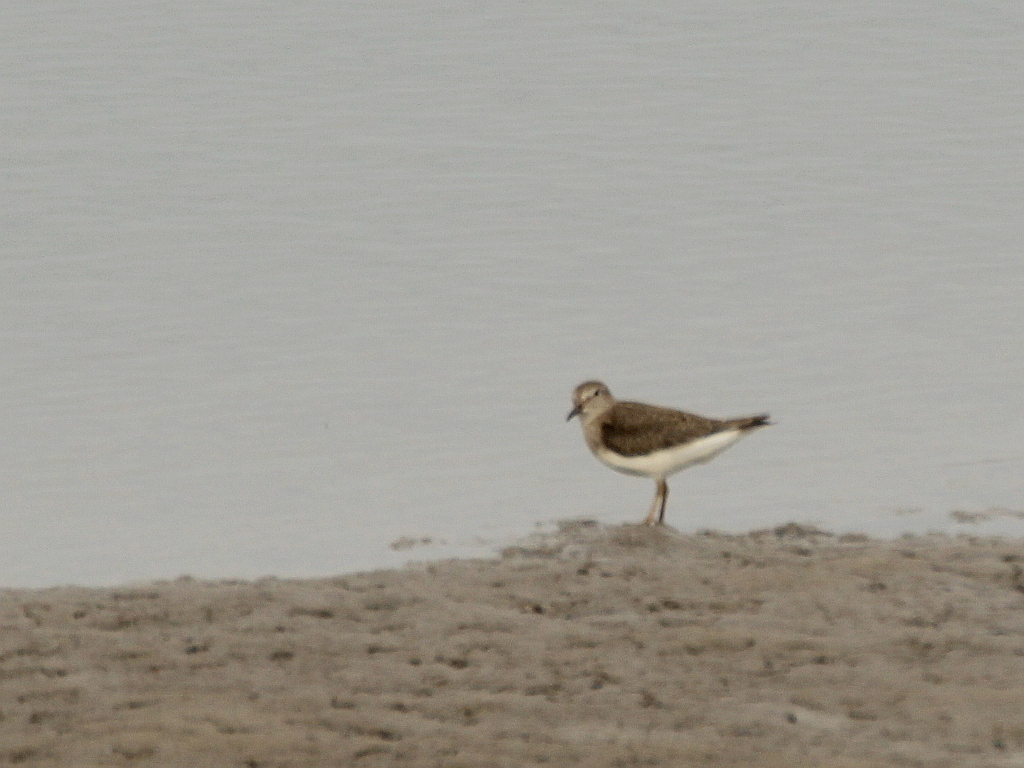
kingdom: Animalia
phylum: Chordata
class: Aves
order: Charadriiformes
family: Scolopacidae
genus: Calidris
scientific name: Calidris temminckii
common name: Temminck's stint
